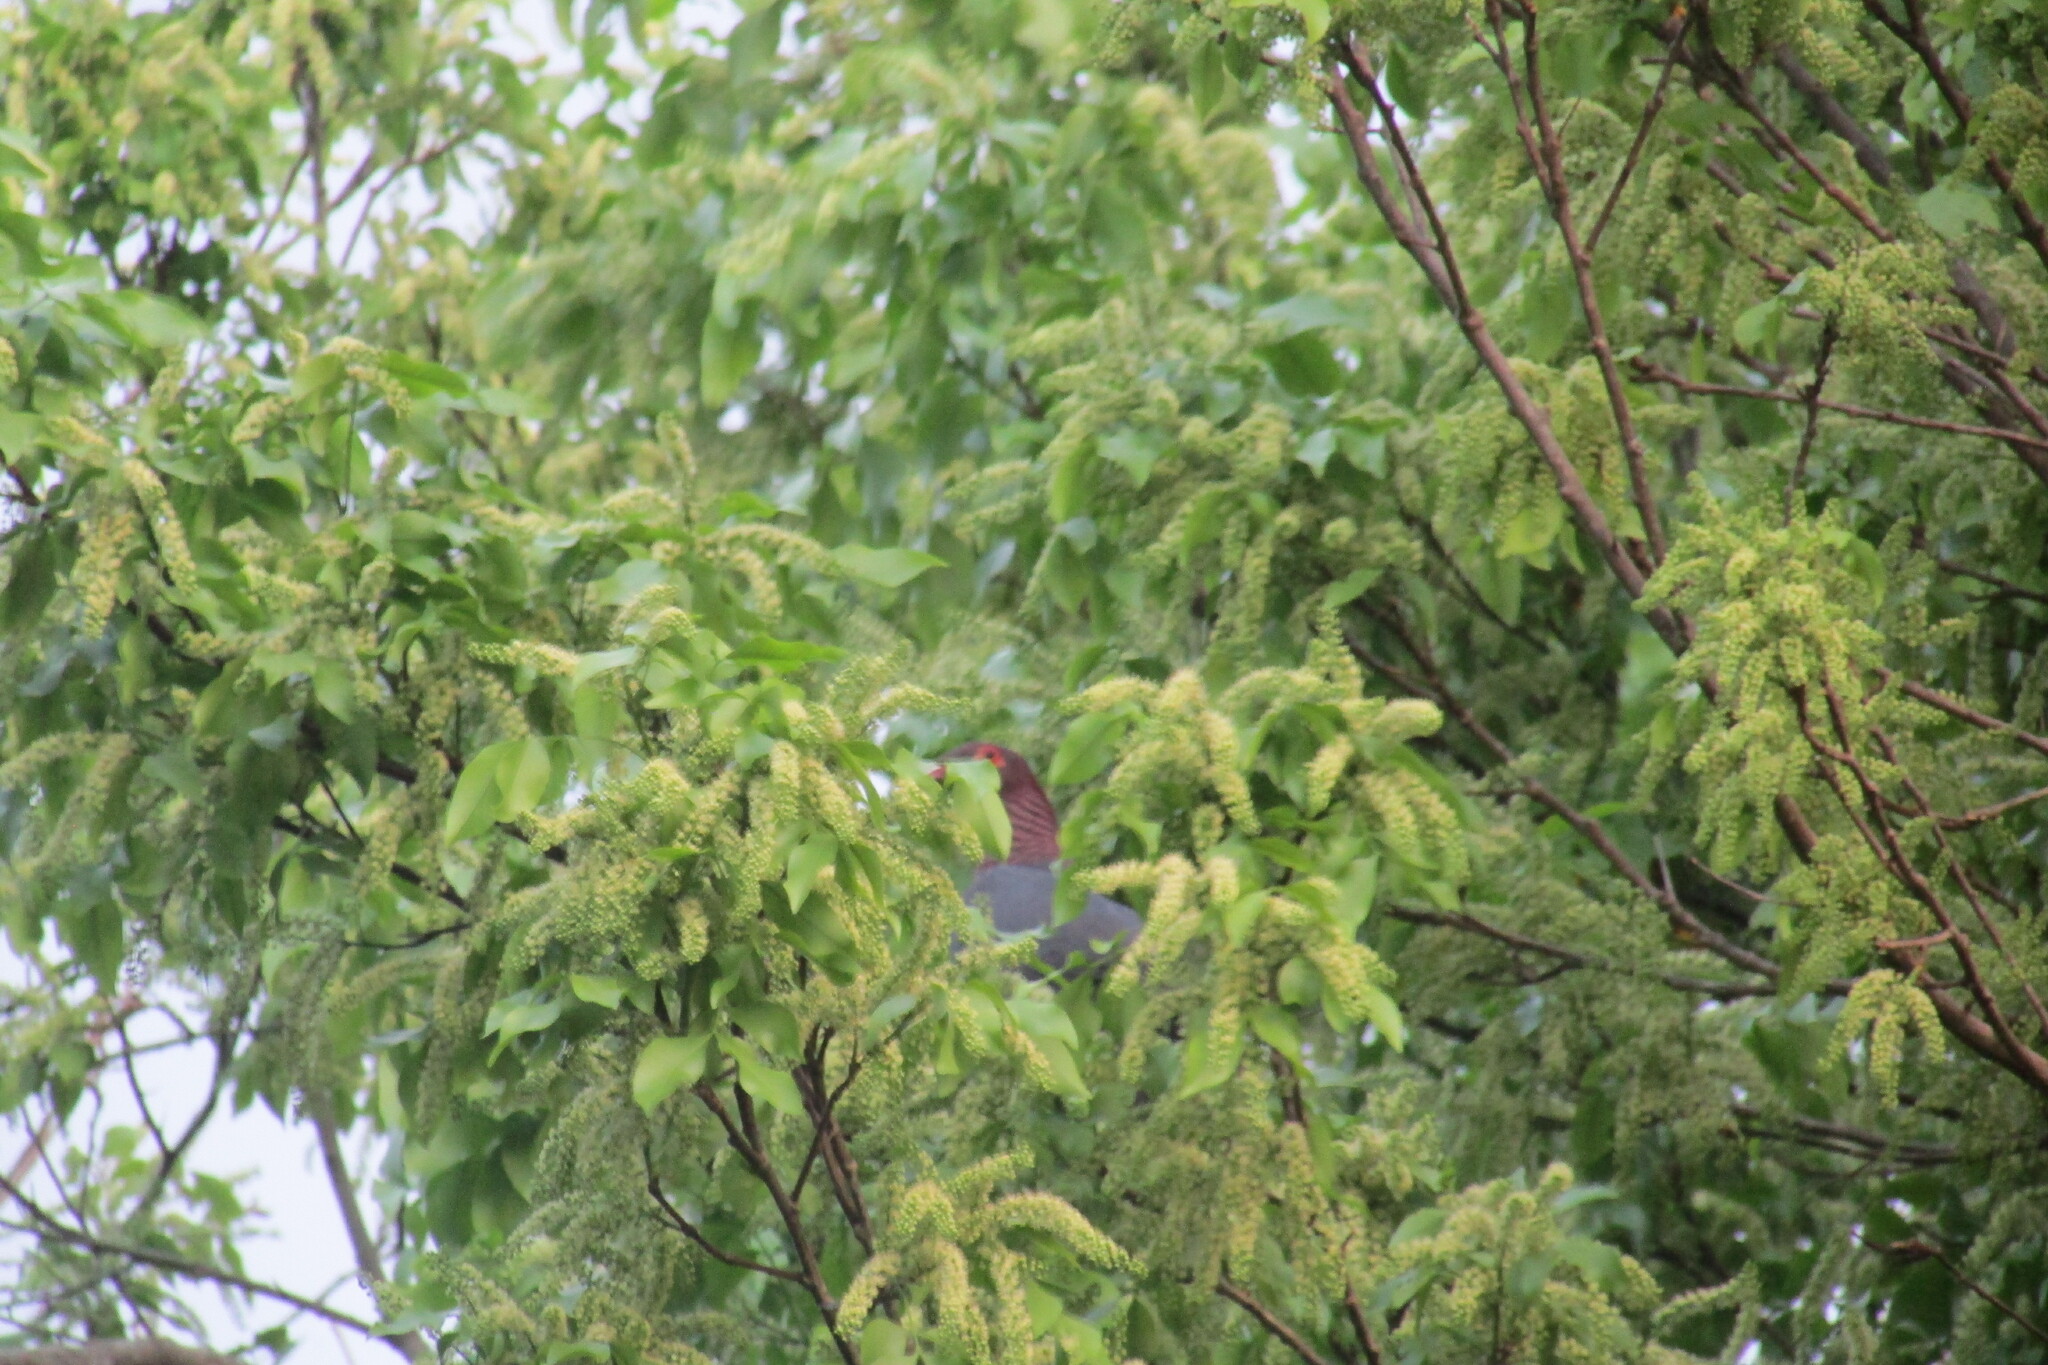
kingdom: Animalia
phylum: Chordata
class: Aves
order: Columbiformes
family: Columbidae
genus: Patagioenas
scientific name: Patagioenas squamosa
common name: Scaly-naped pigeon
